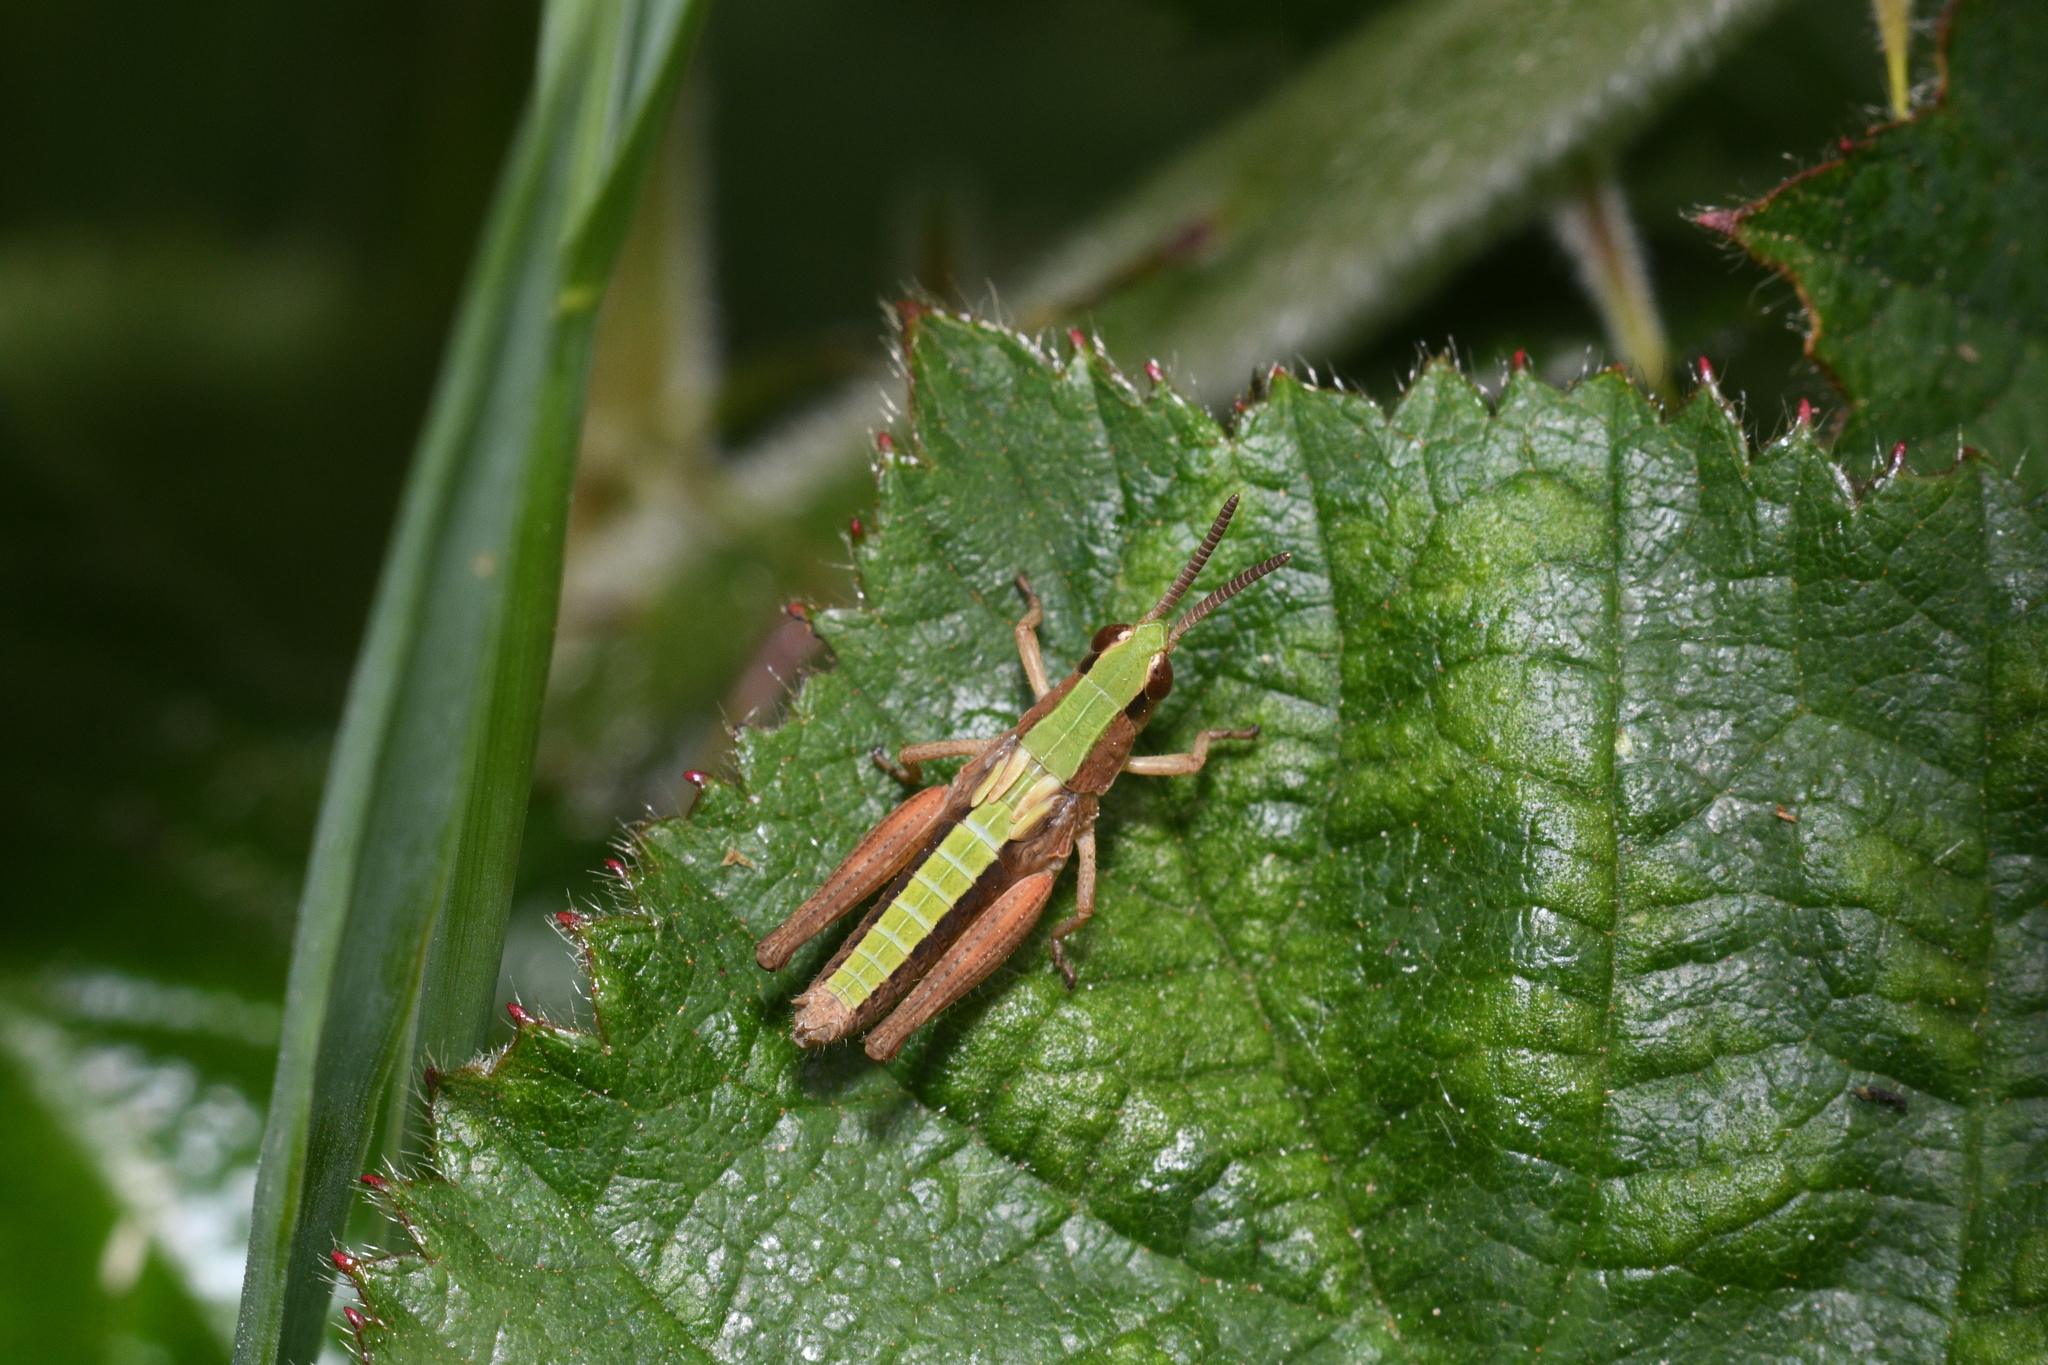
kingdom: Animalia
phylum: Arthropoda
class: Insecta
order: Orthoptera
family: Acrididae
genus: Pseudochorthippus
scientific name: Pseudochorthippus parallelus
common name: Meadow grasshopper
